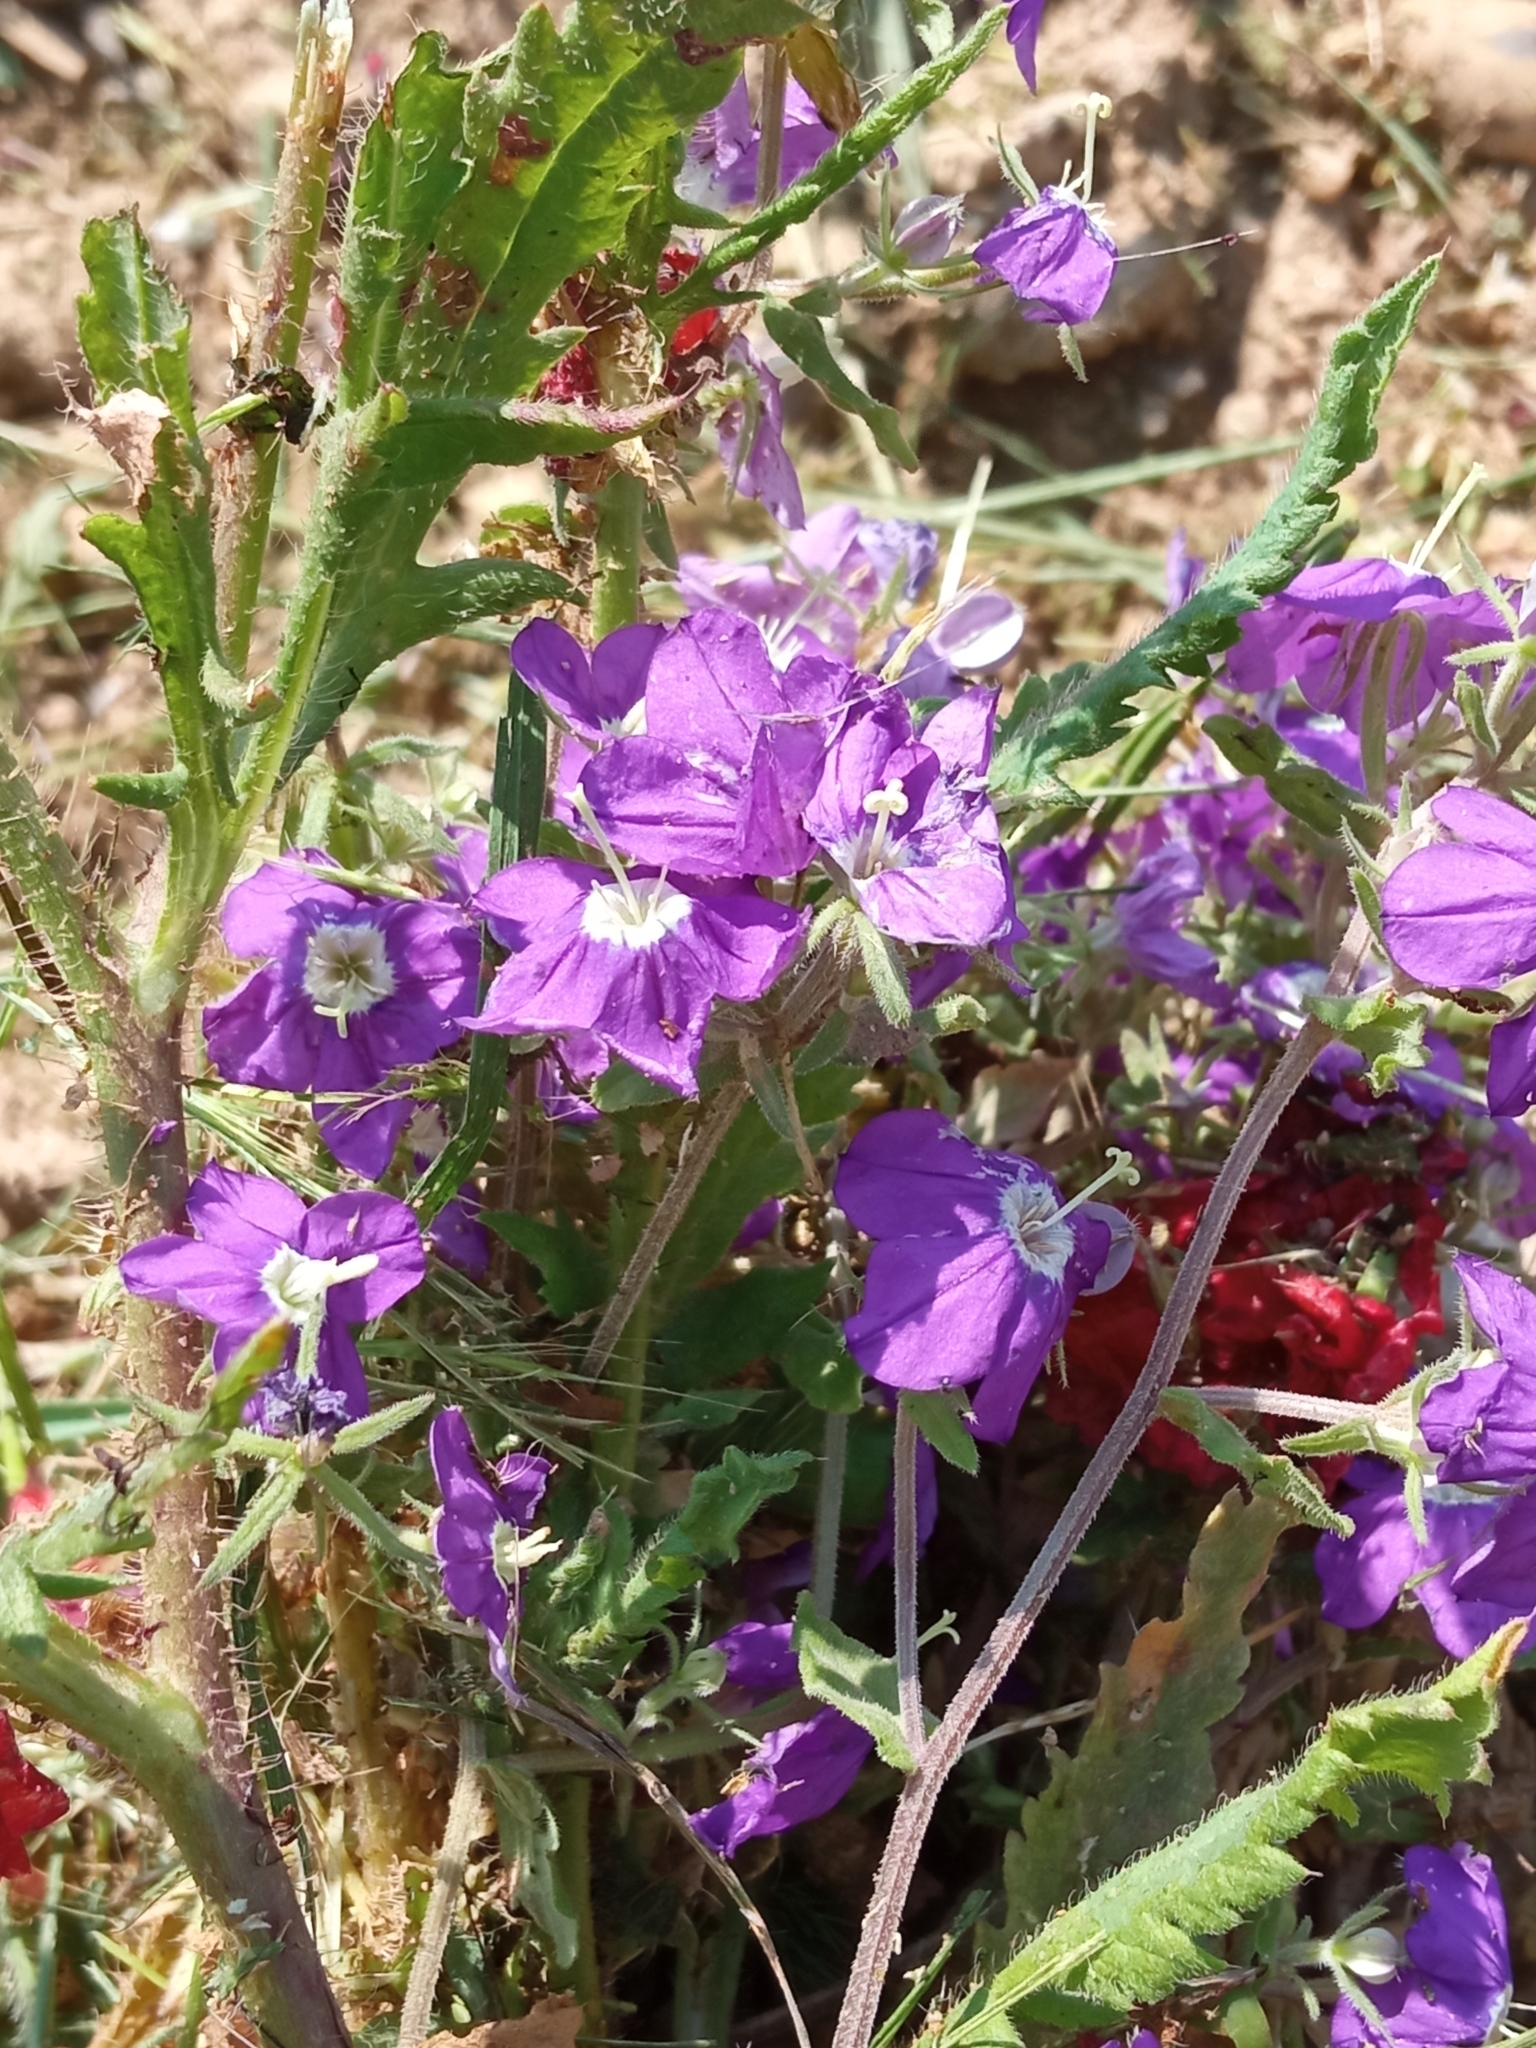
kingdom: Plantae
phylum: Tracheophyta
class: Magnoliopsida
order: Asterales
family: Campanulaceae
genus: Legousia
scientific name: Legousia speculum-veneris
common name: Large venus's-looking-glass
